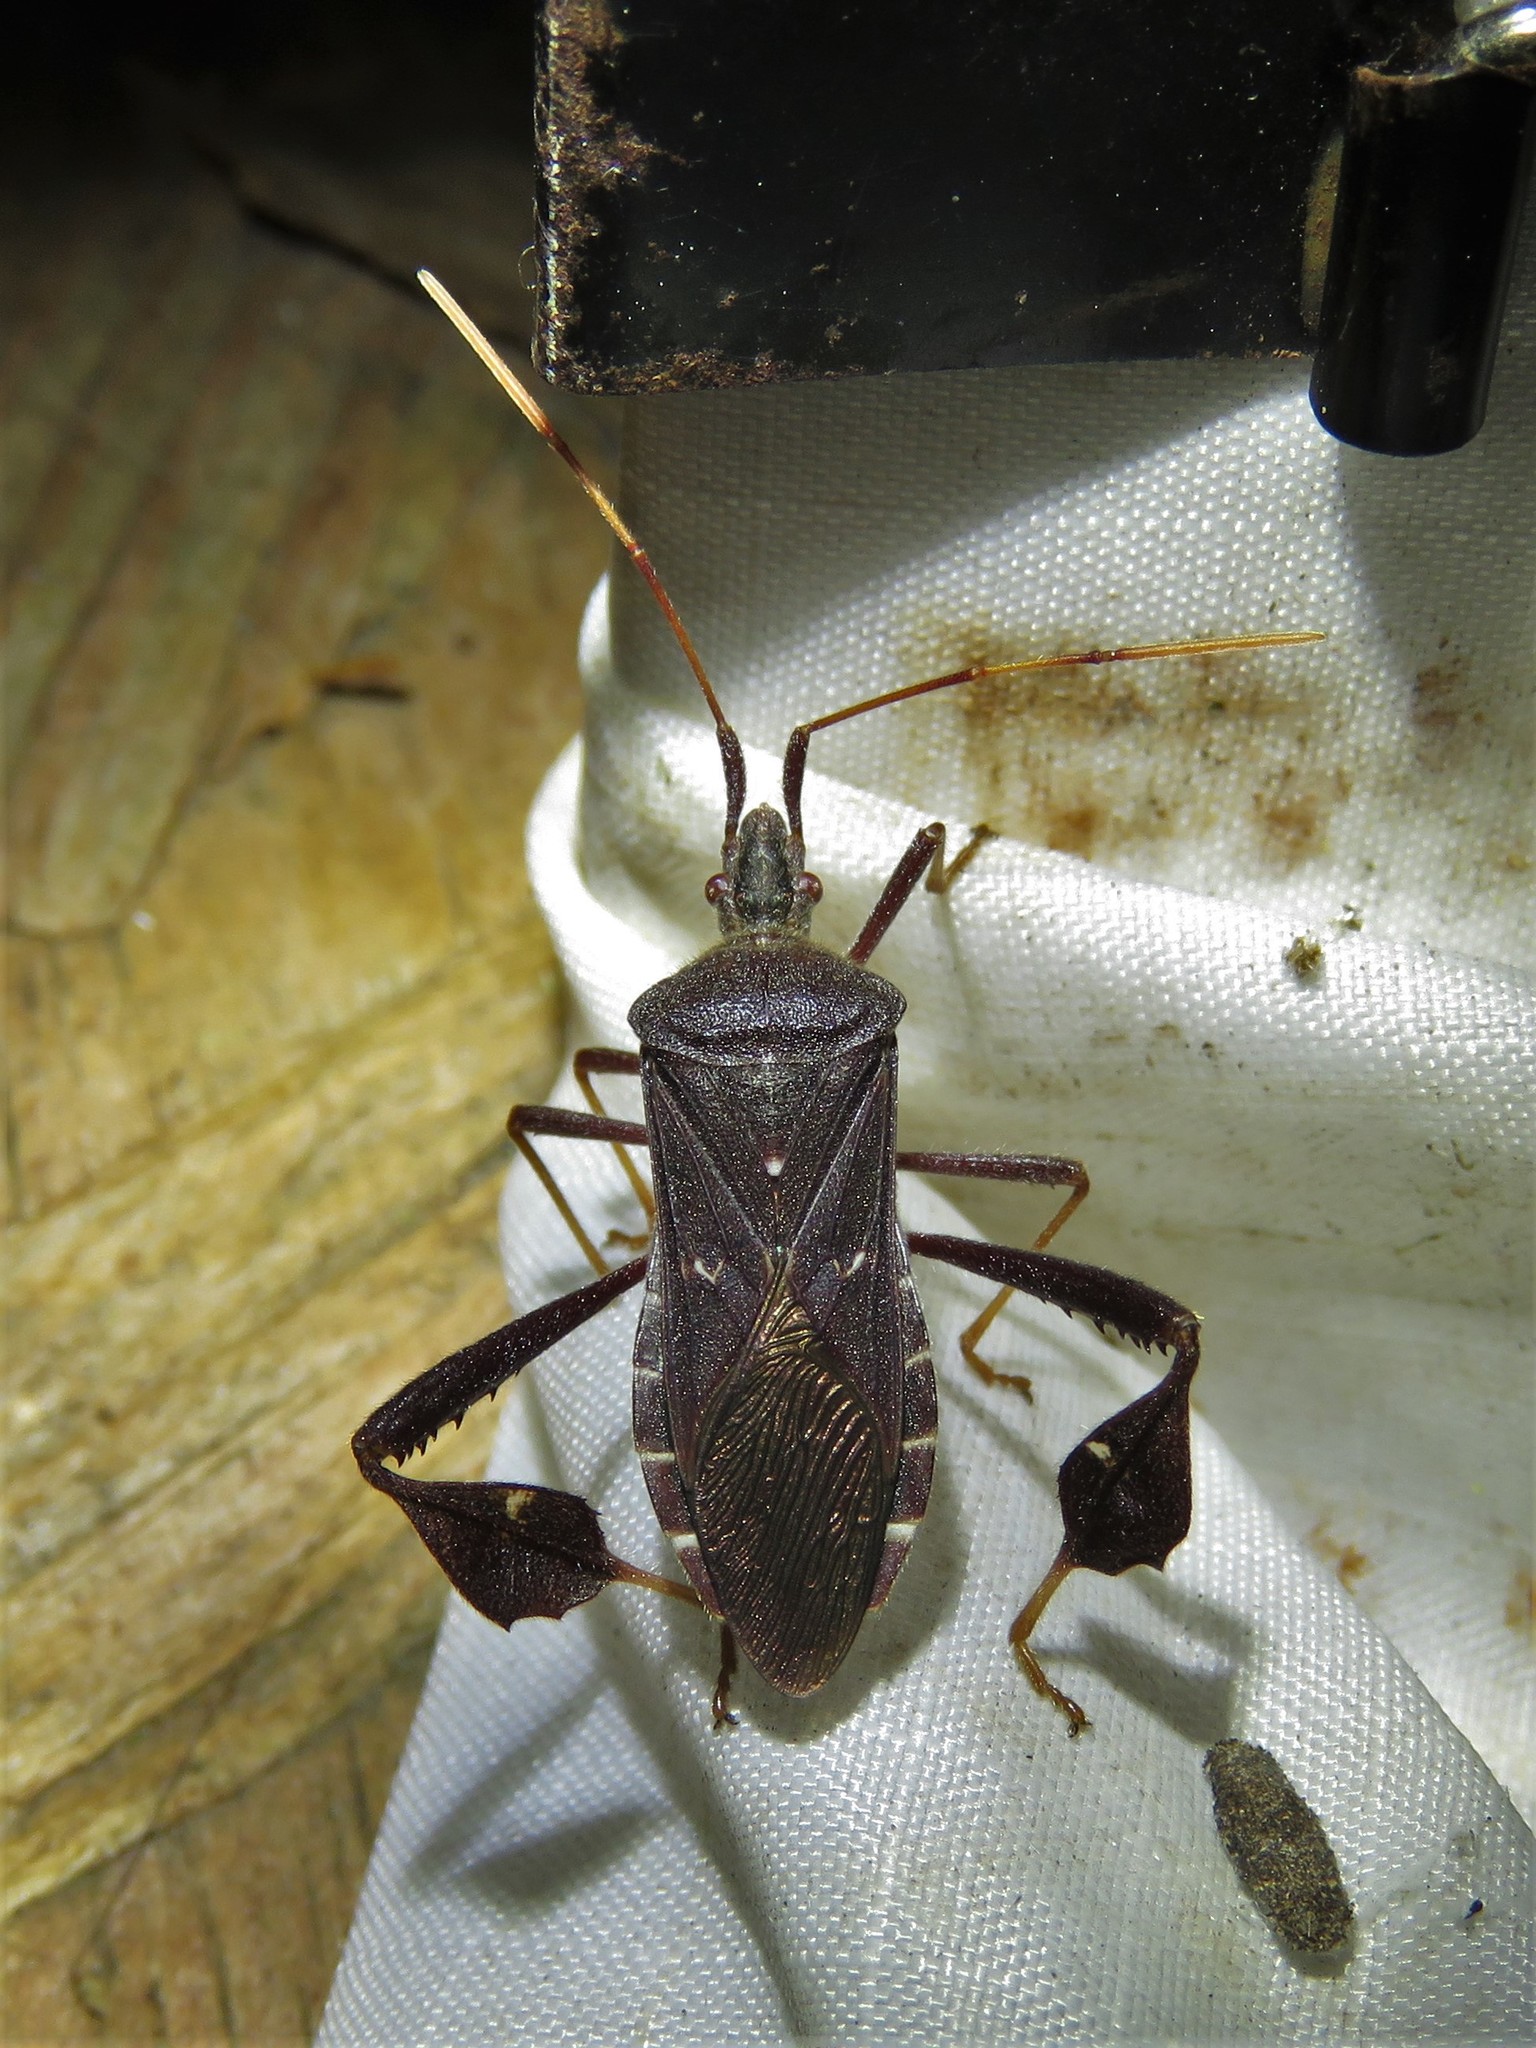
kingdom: Animalia
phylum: Arthropoda
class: Insecta
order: Hemiptera
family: Coreidae
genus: Leptoglossus
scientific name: Leptoglossus oppositus
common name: Northern leaf-footed bug
